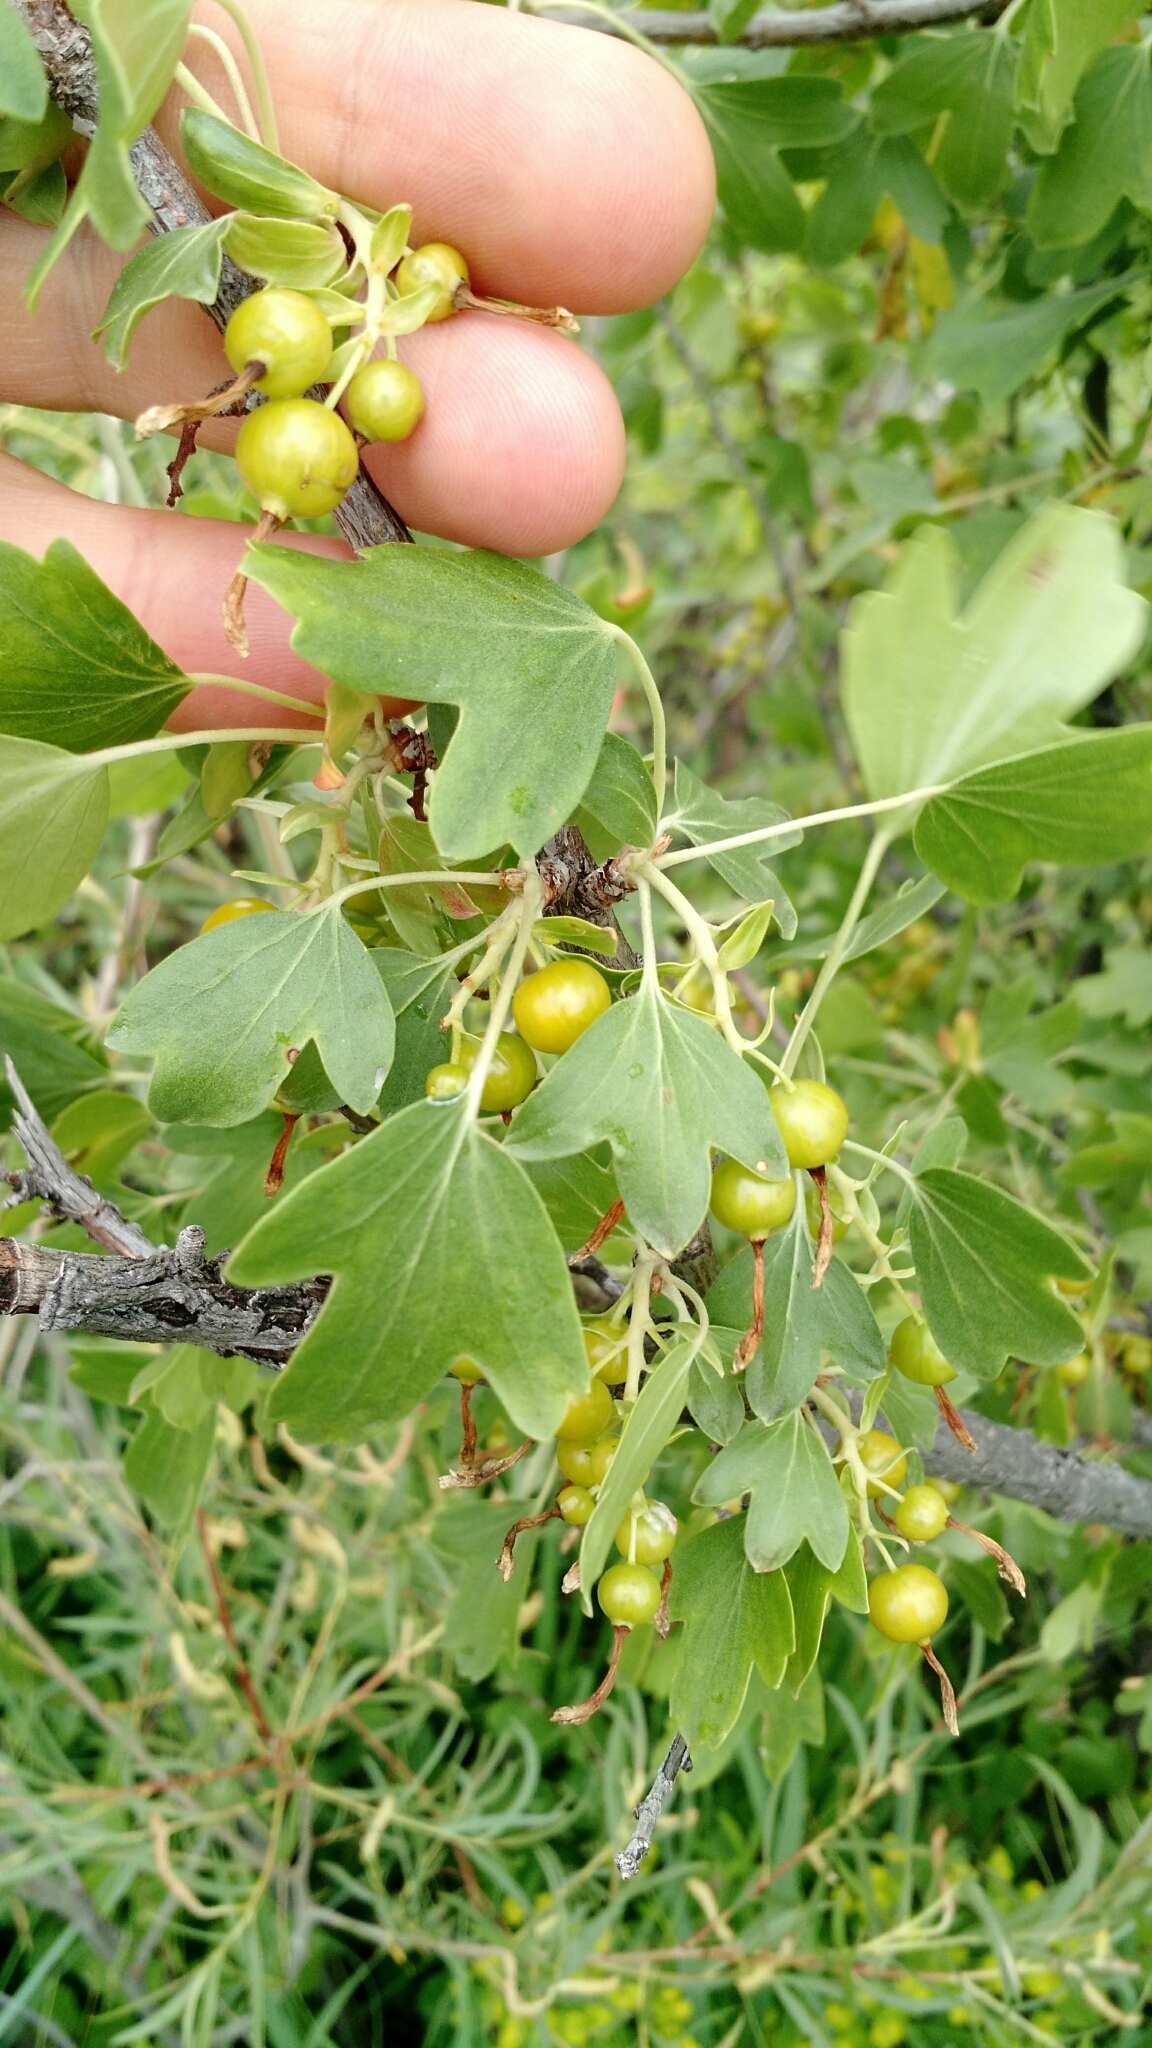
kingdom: Plantae
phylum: Tracheophyta
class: Magnoliopsida
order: Saxifragales
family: Grossulariaceae
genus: Ribes
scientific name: Ribes aureum
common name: Golden currant
